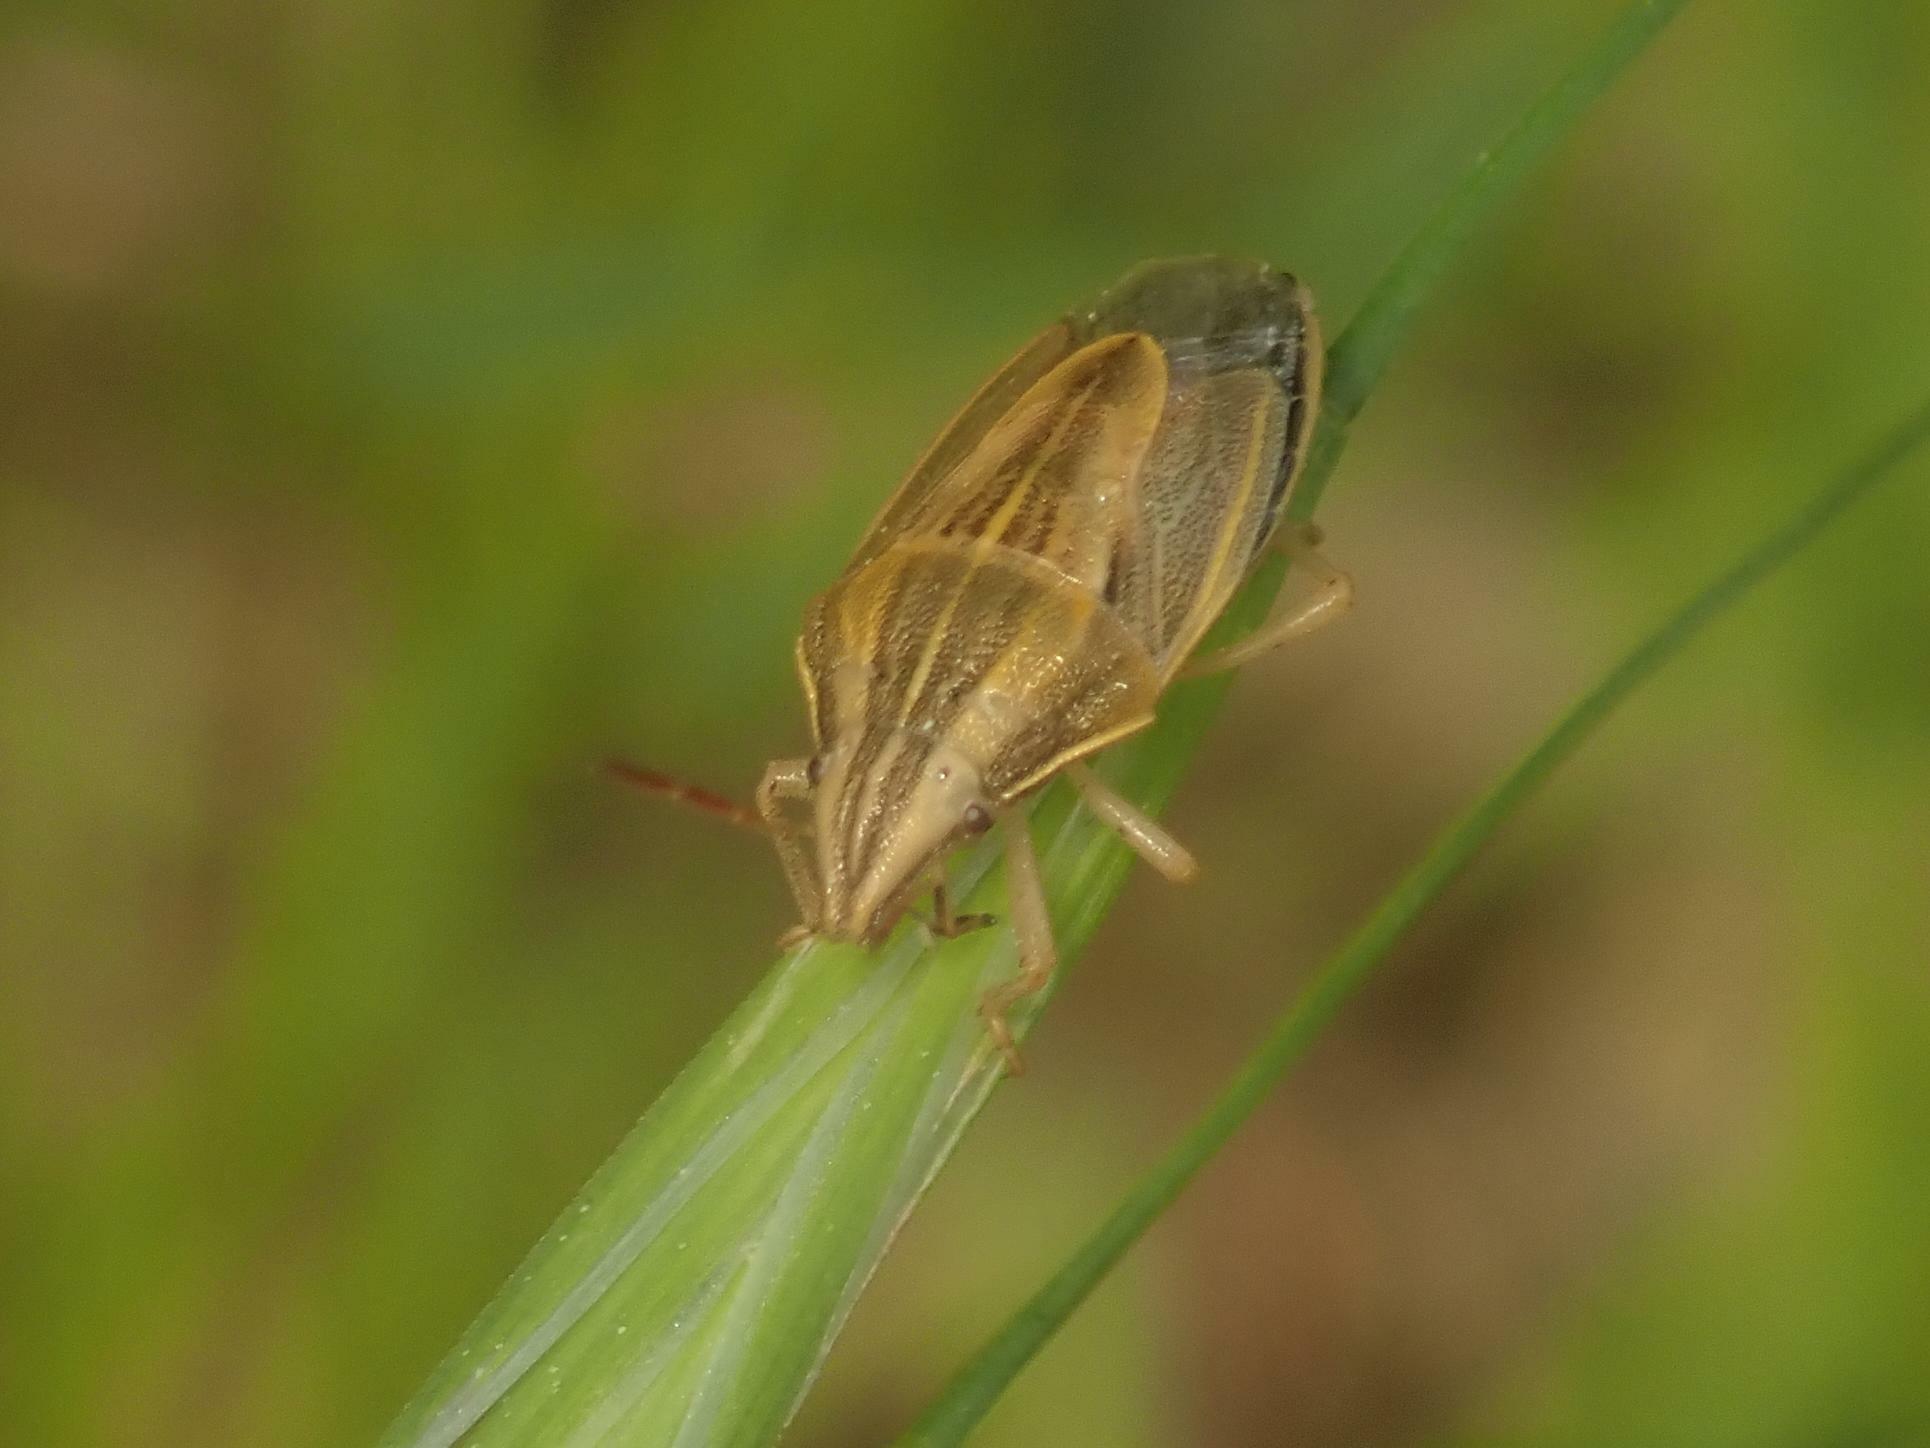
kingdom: Animalia
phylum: Arthropoda
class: Insecta
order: Hemiptera
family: Pentatomidae
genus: Aelia
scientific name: Aelia acuminata
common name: Bishop's mitre
